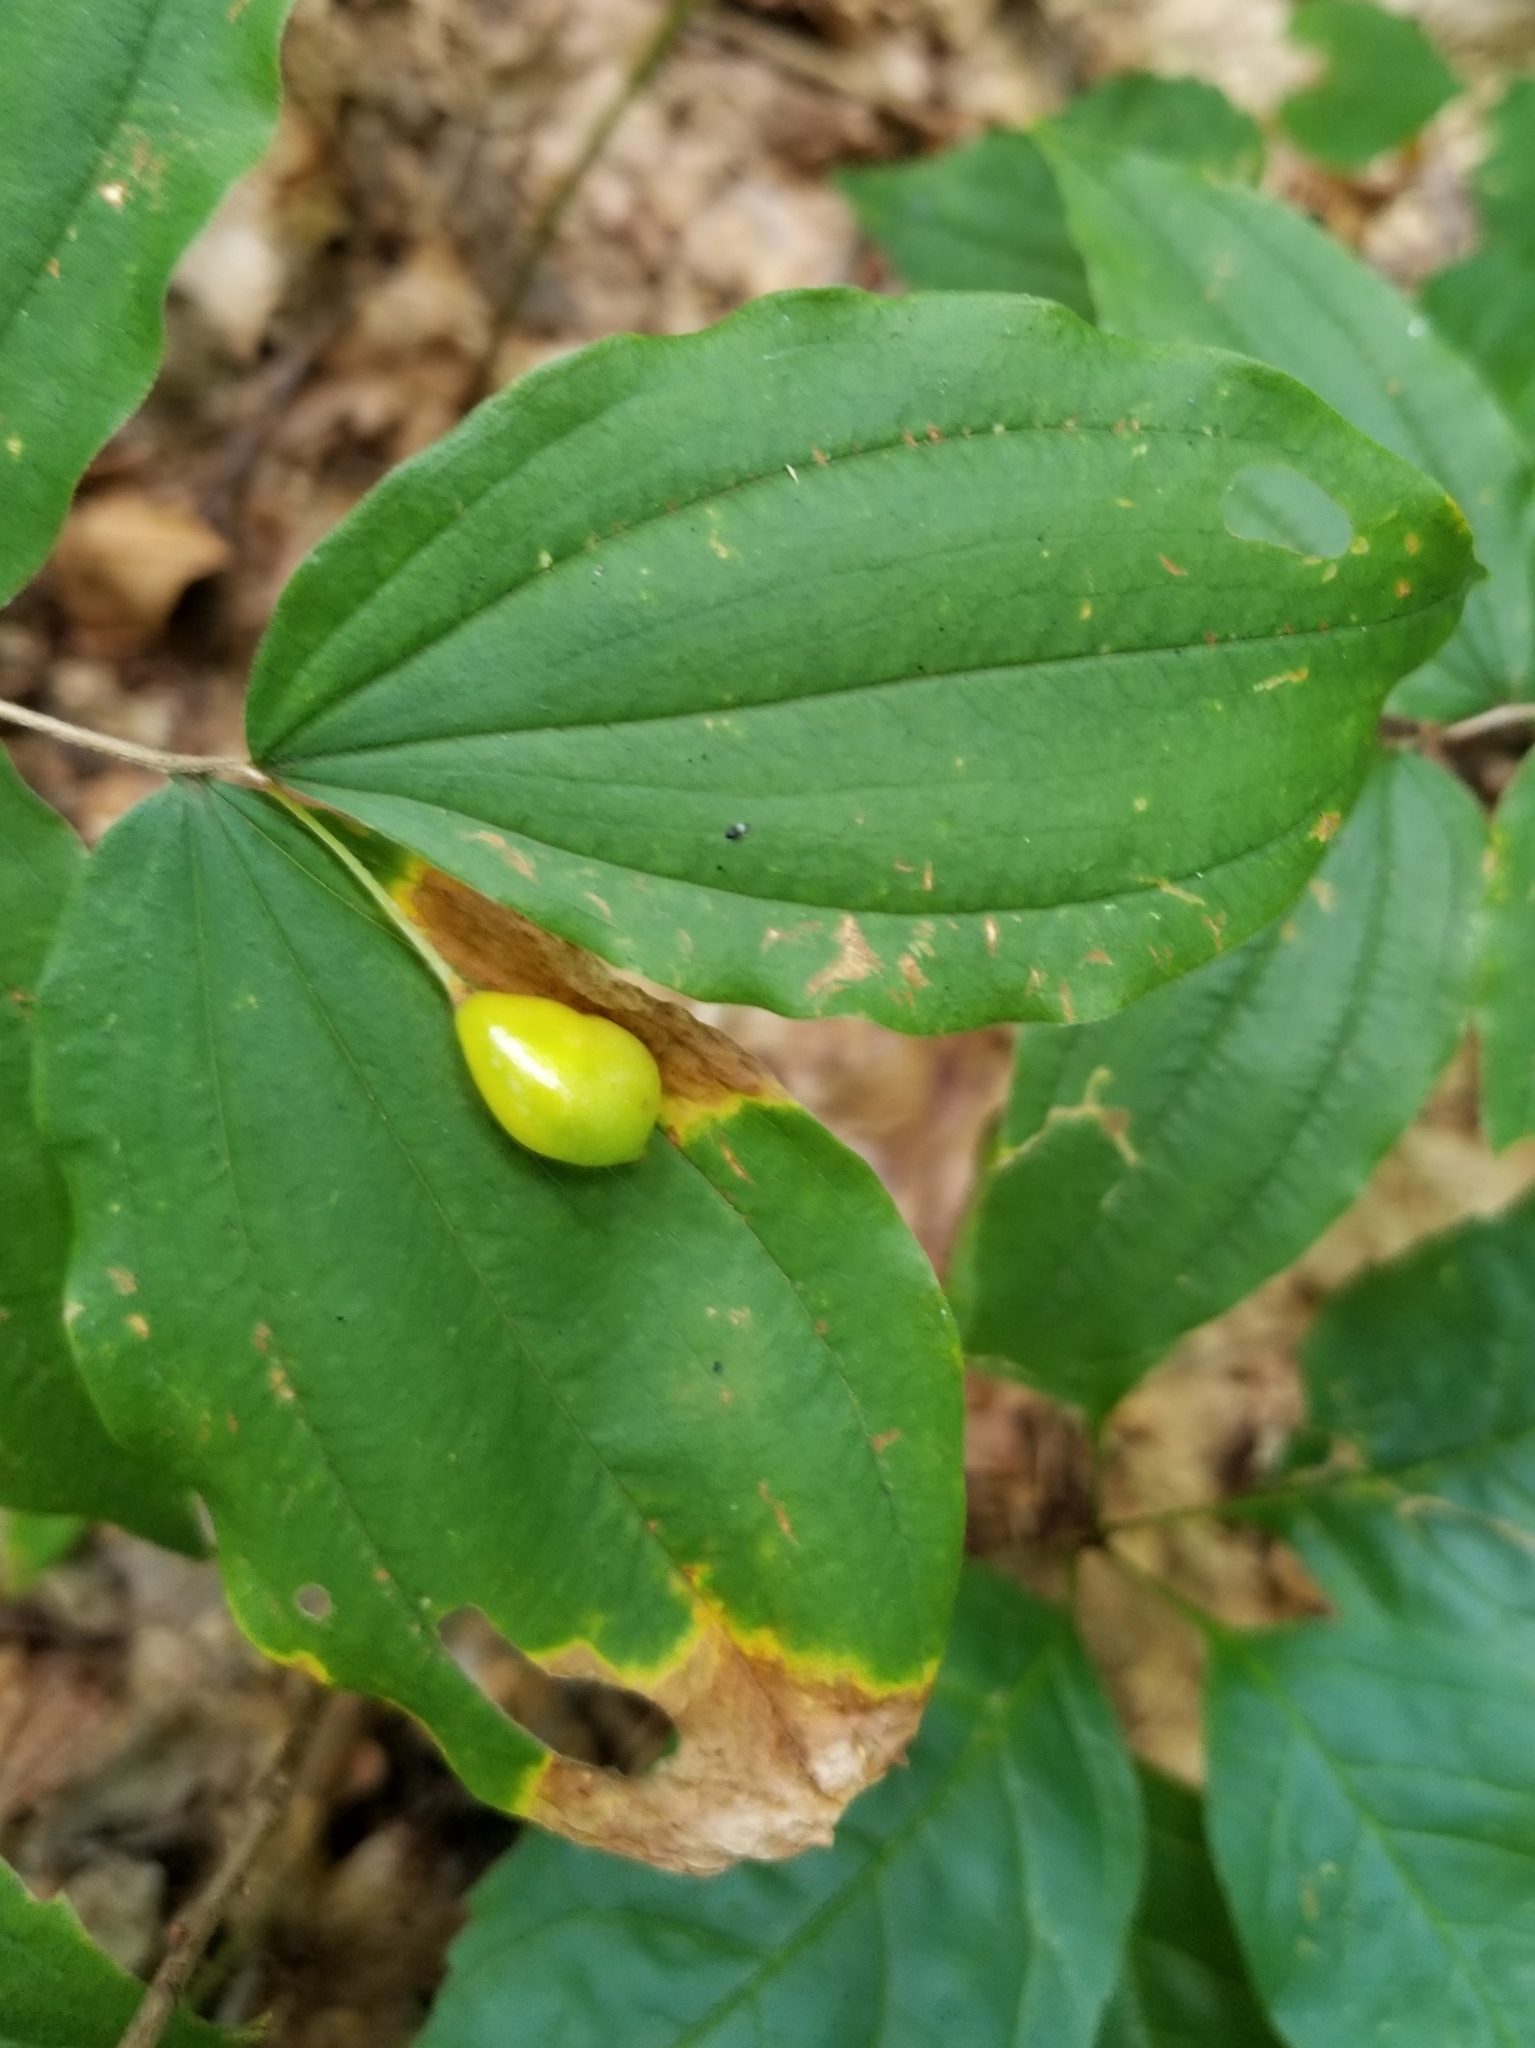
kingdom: Plantae
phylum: Tracheophyta
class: Liliopsida
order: Liliales
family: Liliaceae
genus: Prosartes
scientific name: Prosartes lanuginosa
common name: Hairy mandarin
